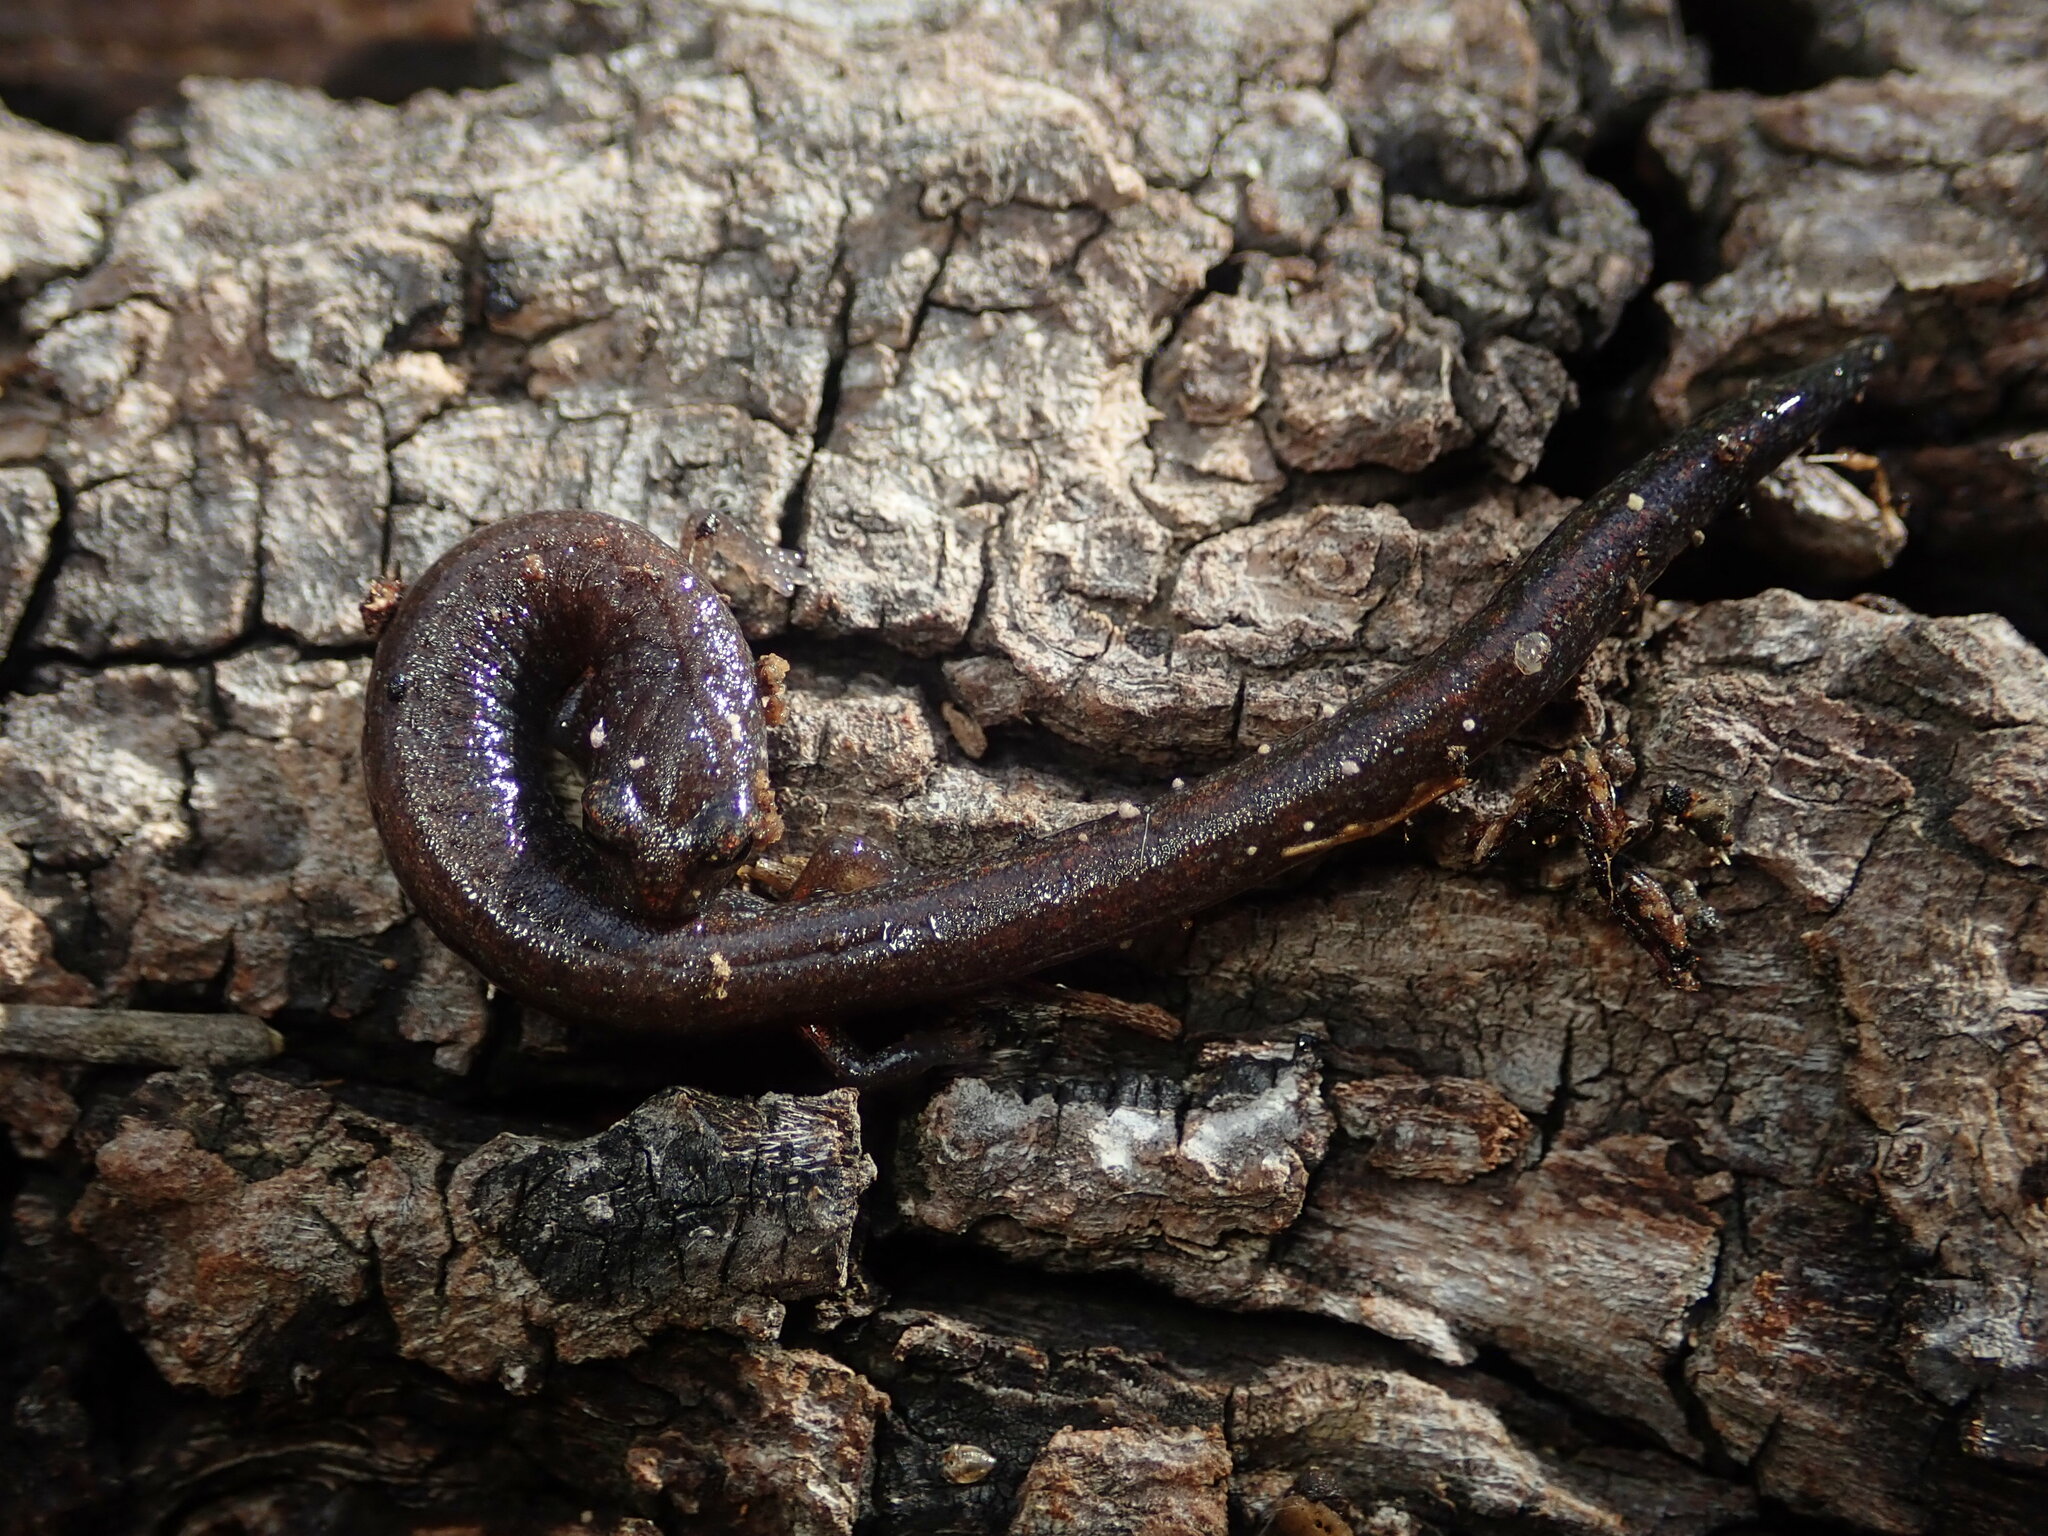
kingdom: Animalia
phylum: Chordata
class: Amphibia
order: Caudata
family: Plethodontidae
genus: Batrachoseps
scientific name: Batrachoseps major
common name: Garden slender salamander
